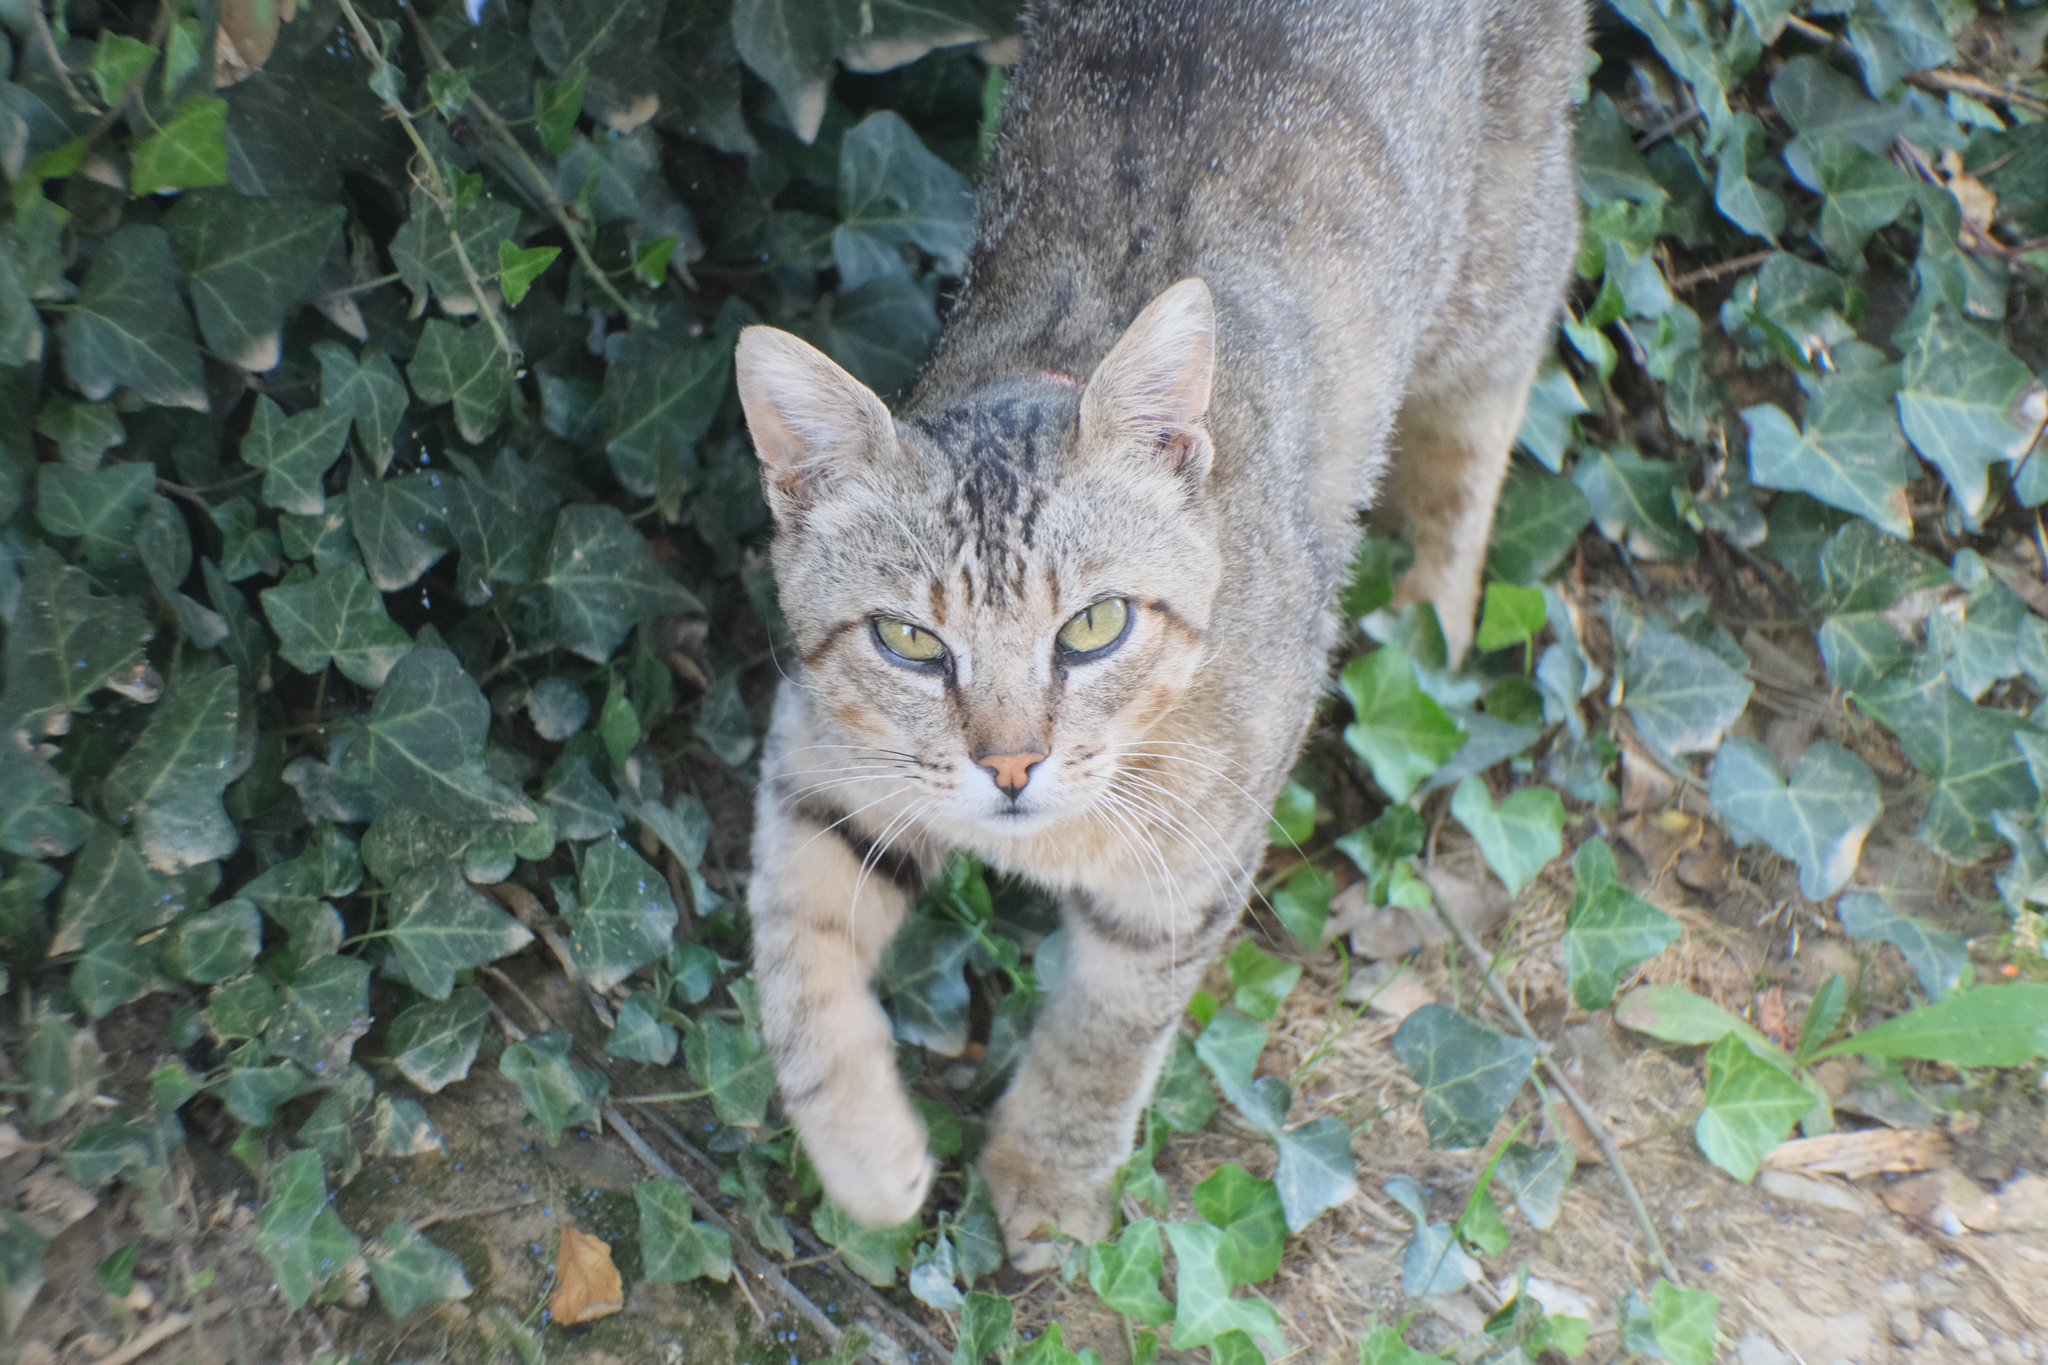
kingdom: Animalia
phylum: Chordata
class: Mammalia
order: Carnivora
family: Felidae
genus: Felis
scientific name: Felis catus
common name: Domestic cat
